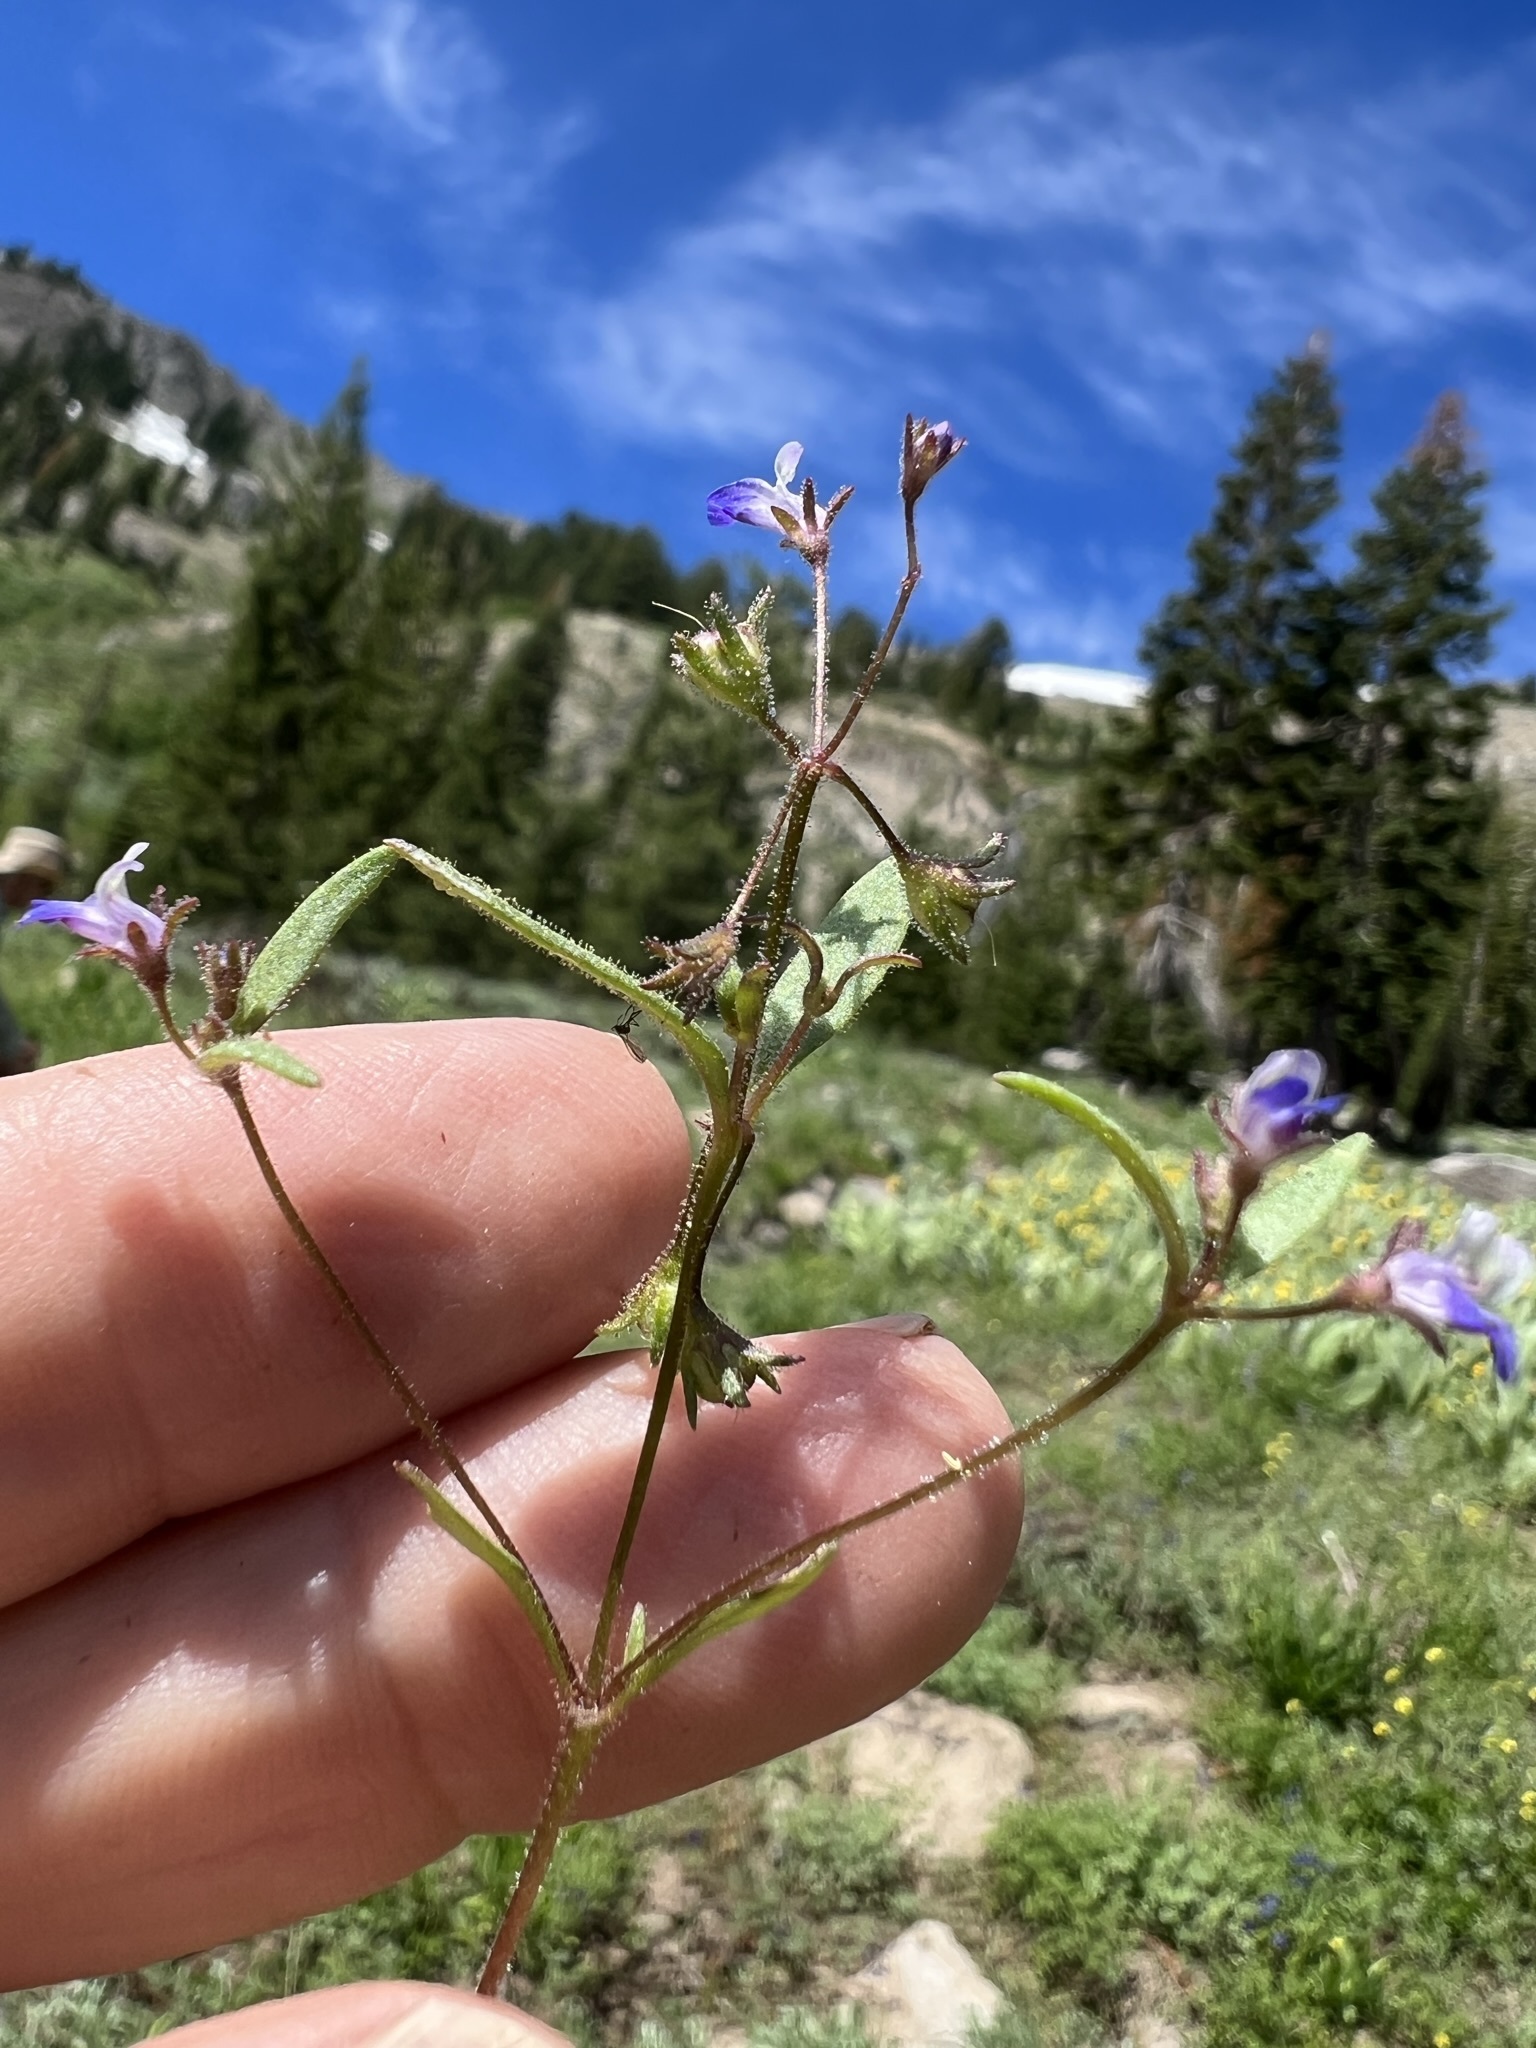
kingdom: Plantae
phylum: Tracheophyta
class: Magnoliopsida
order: Lamiales
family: Plantaginaceae
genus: Collinsia
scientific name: Collinsia torreyi
